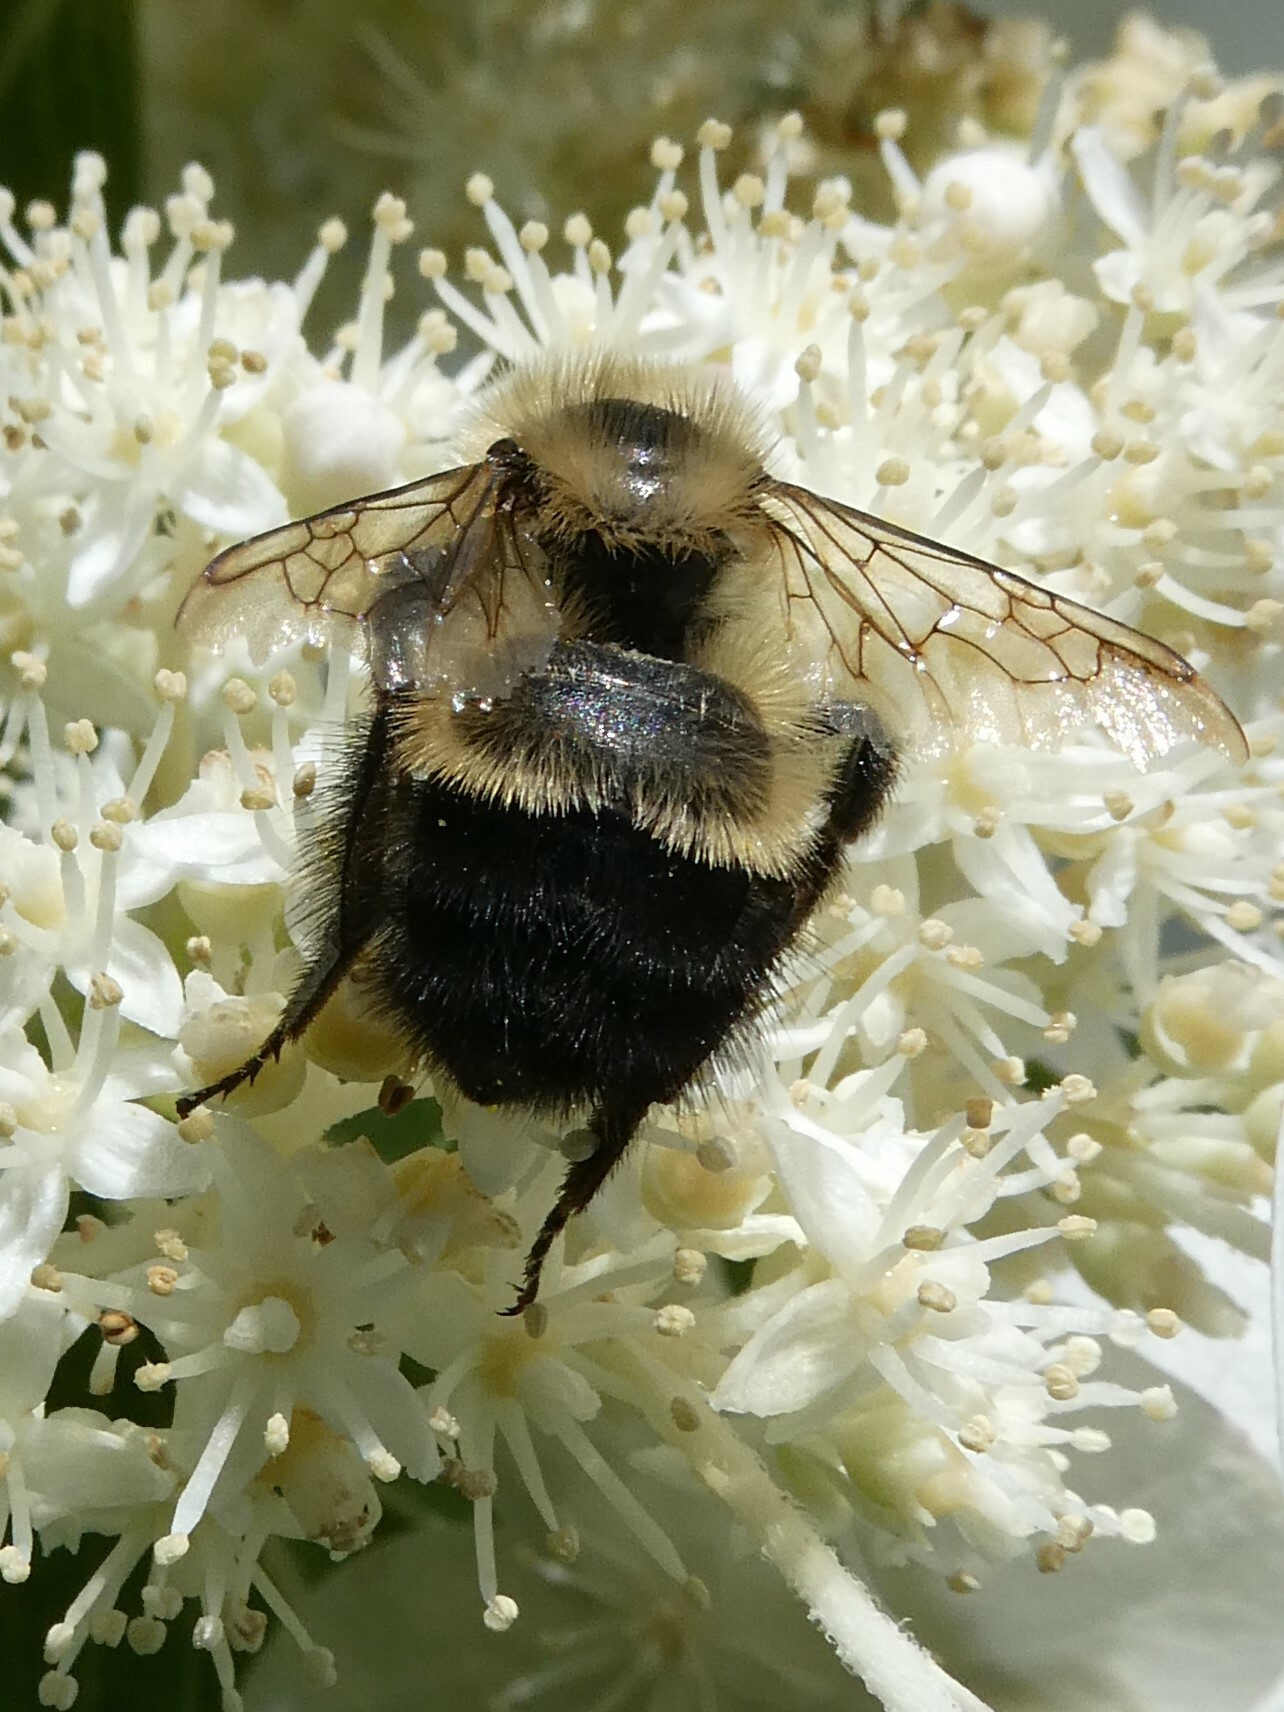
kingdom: Animalia
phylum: Arthropoda
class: Insecta
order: Hymenoptera
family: Apidae
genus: Bombus
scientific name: Bombus vagans
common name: Half-black bumble bee
